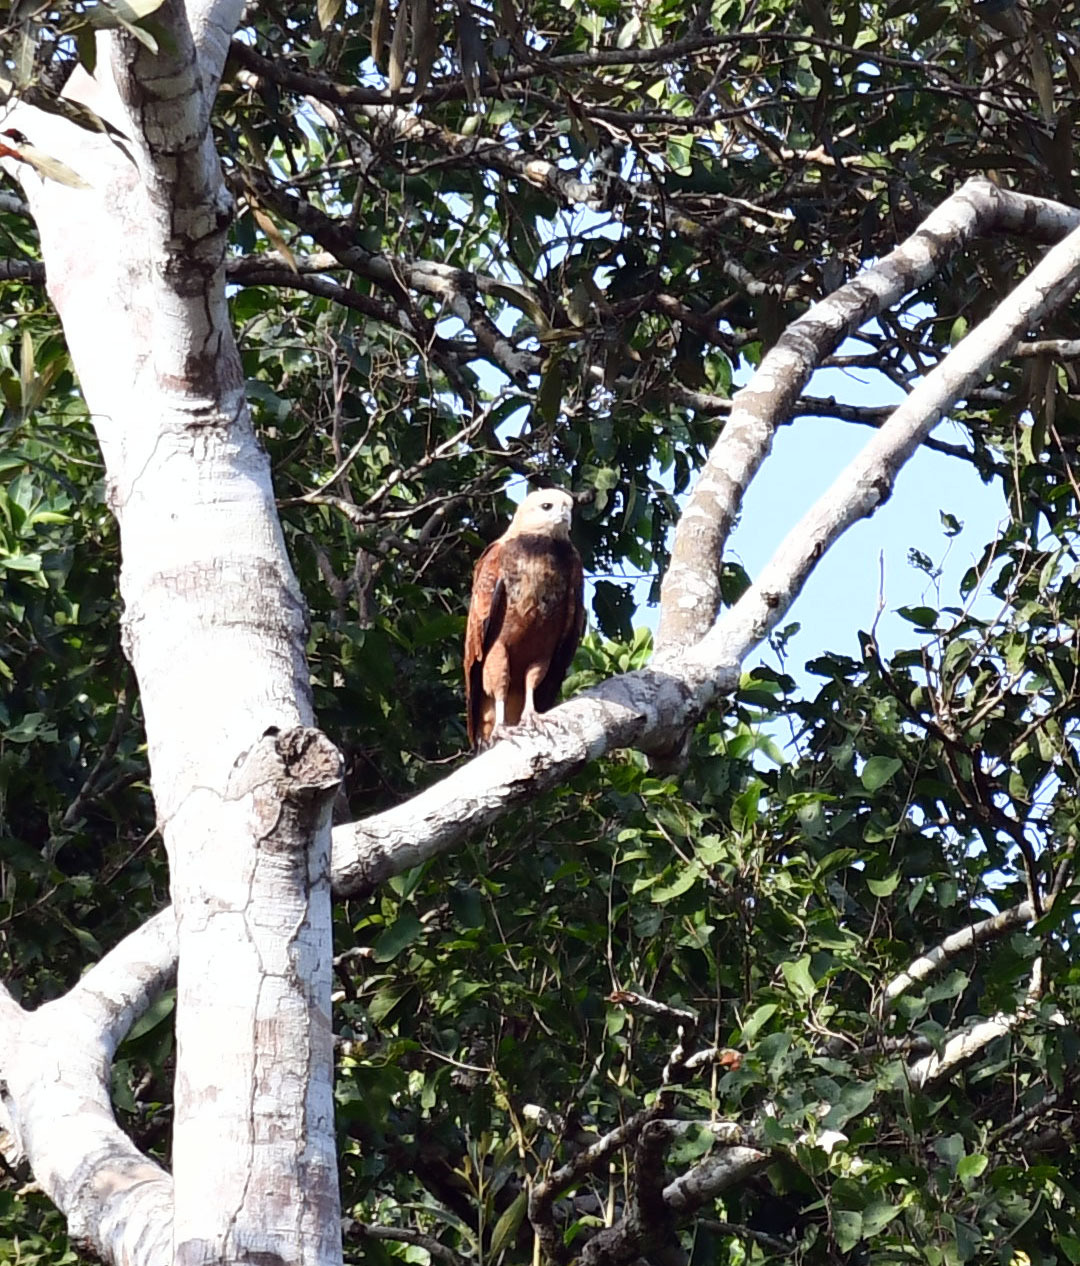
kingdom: Animalia
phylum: Chordata
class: Aves
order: Accipitriformes
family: Accipitridae
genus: Busarellus
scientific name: Busarellus nigricollis
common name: Black-collared hawk
